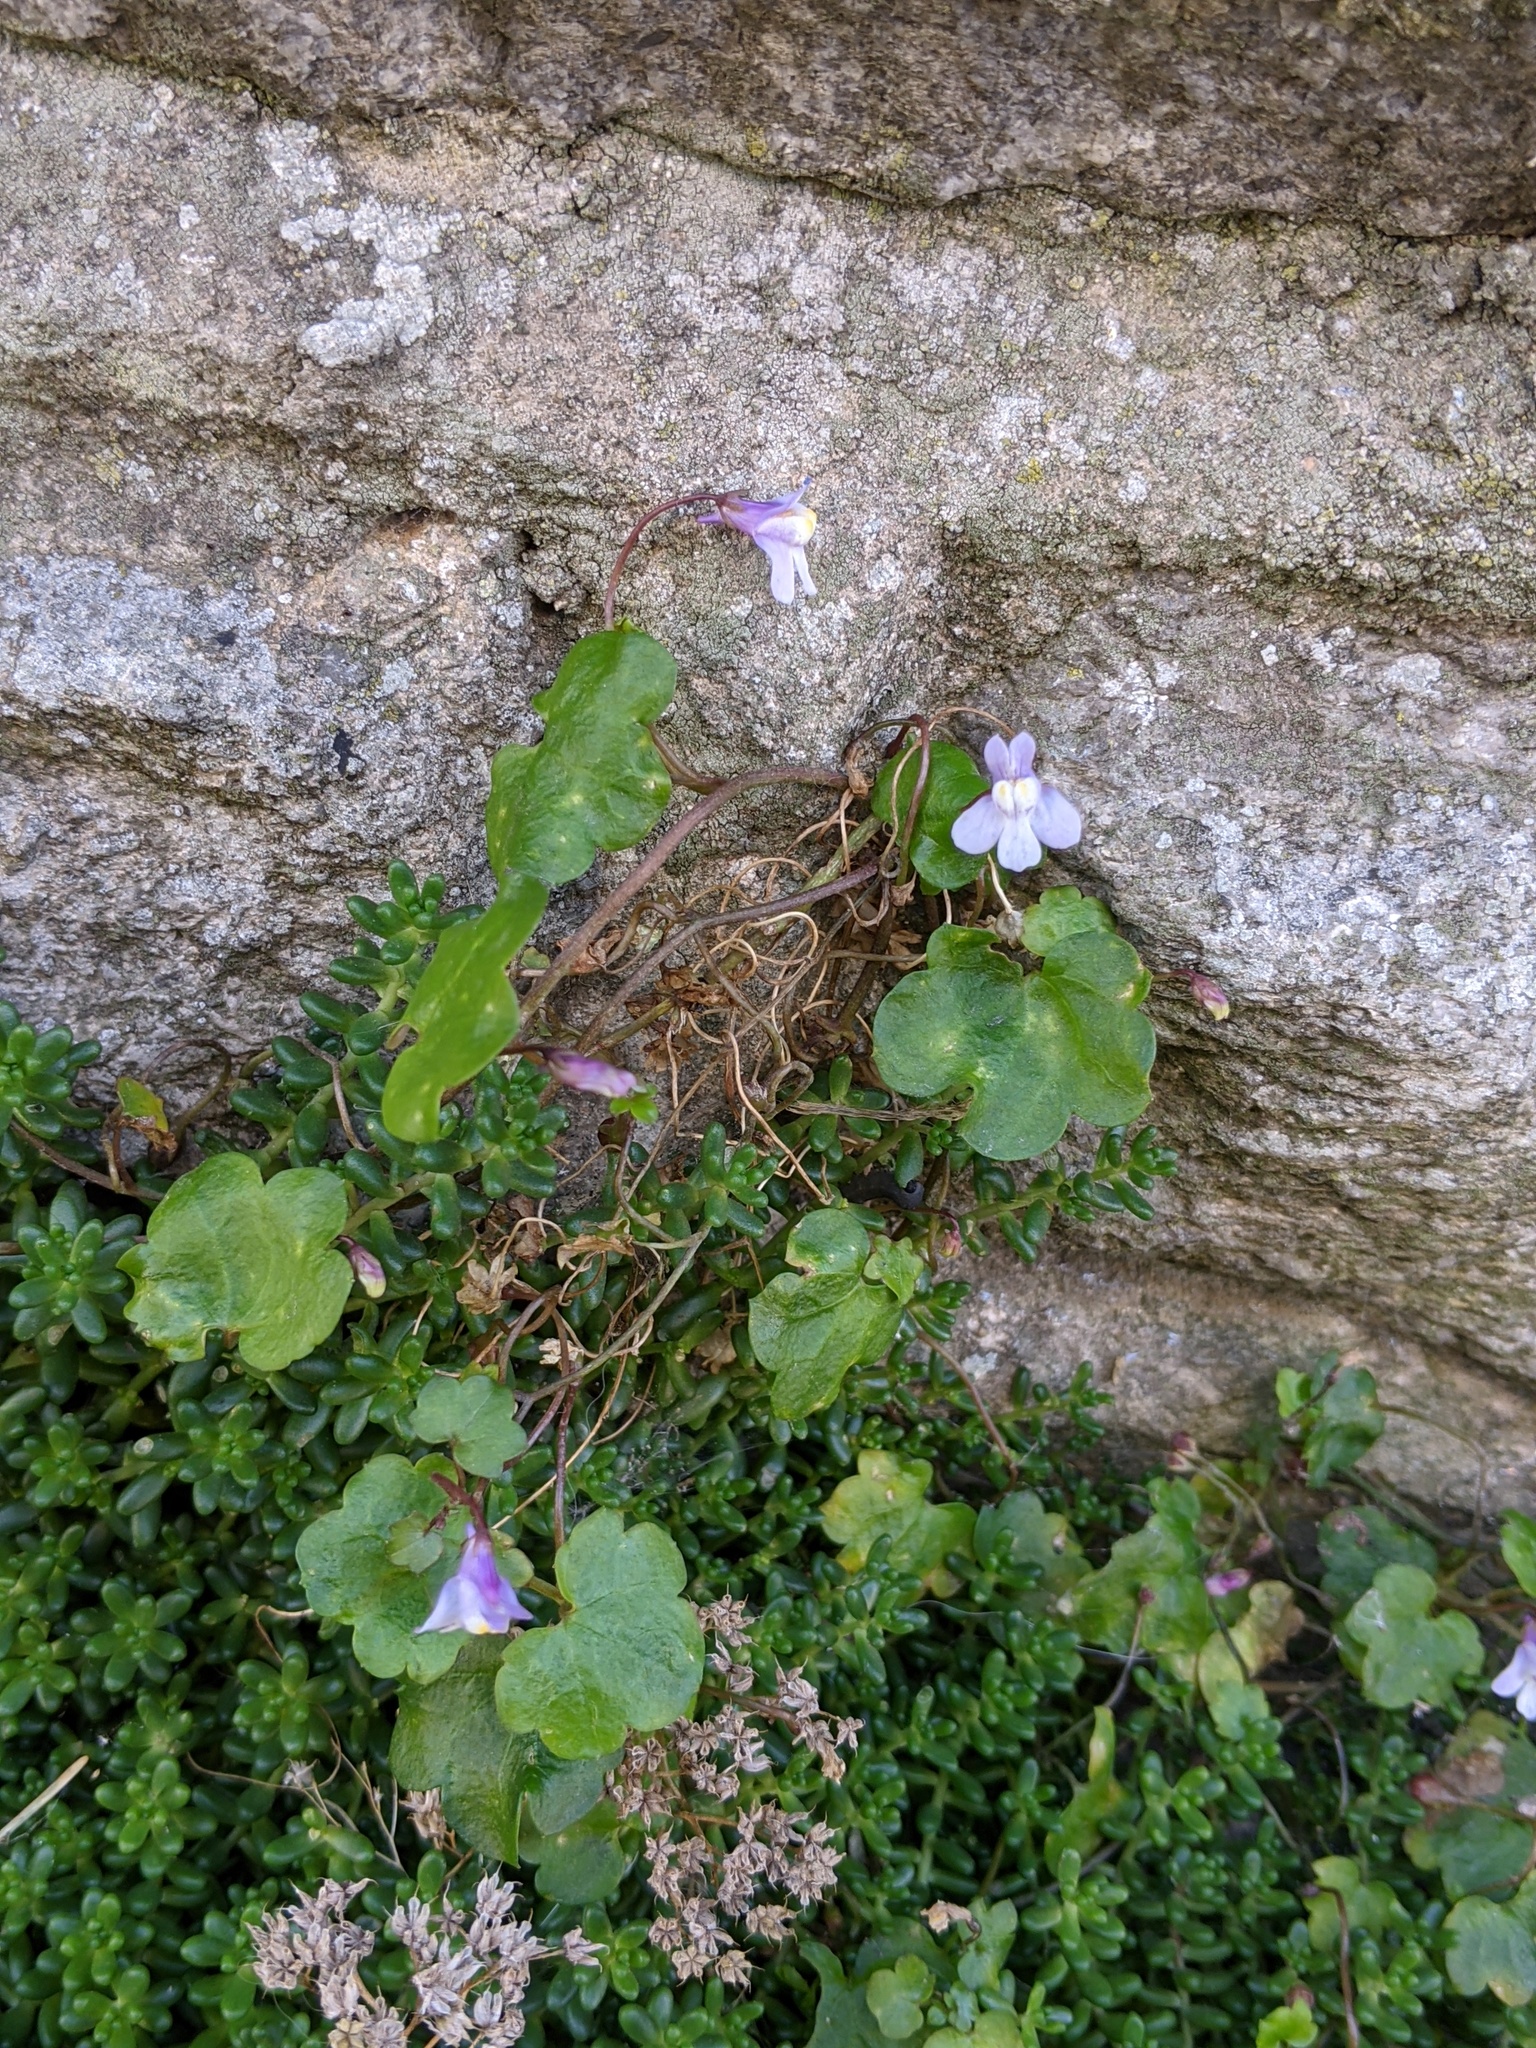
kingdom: Plantae
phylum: Tracheophyta
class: Magnoliopsida
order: Lamiales
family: Plantaginaceae
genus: Cymbalaria
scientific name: Cymbalaria muralis
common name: Ivy-leaved toadflax
